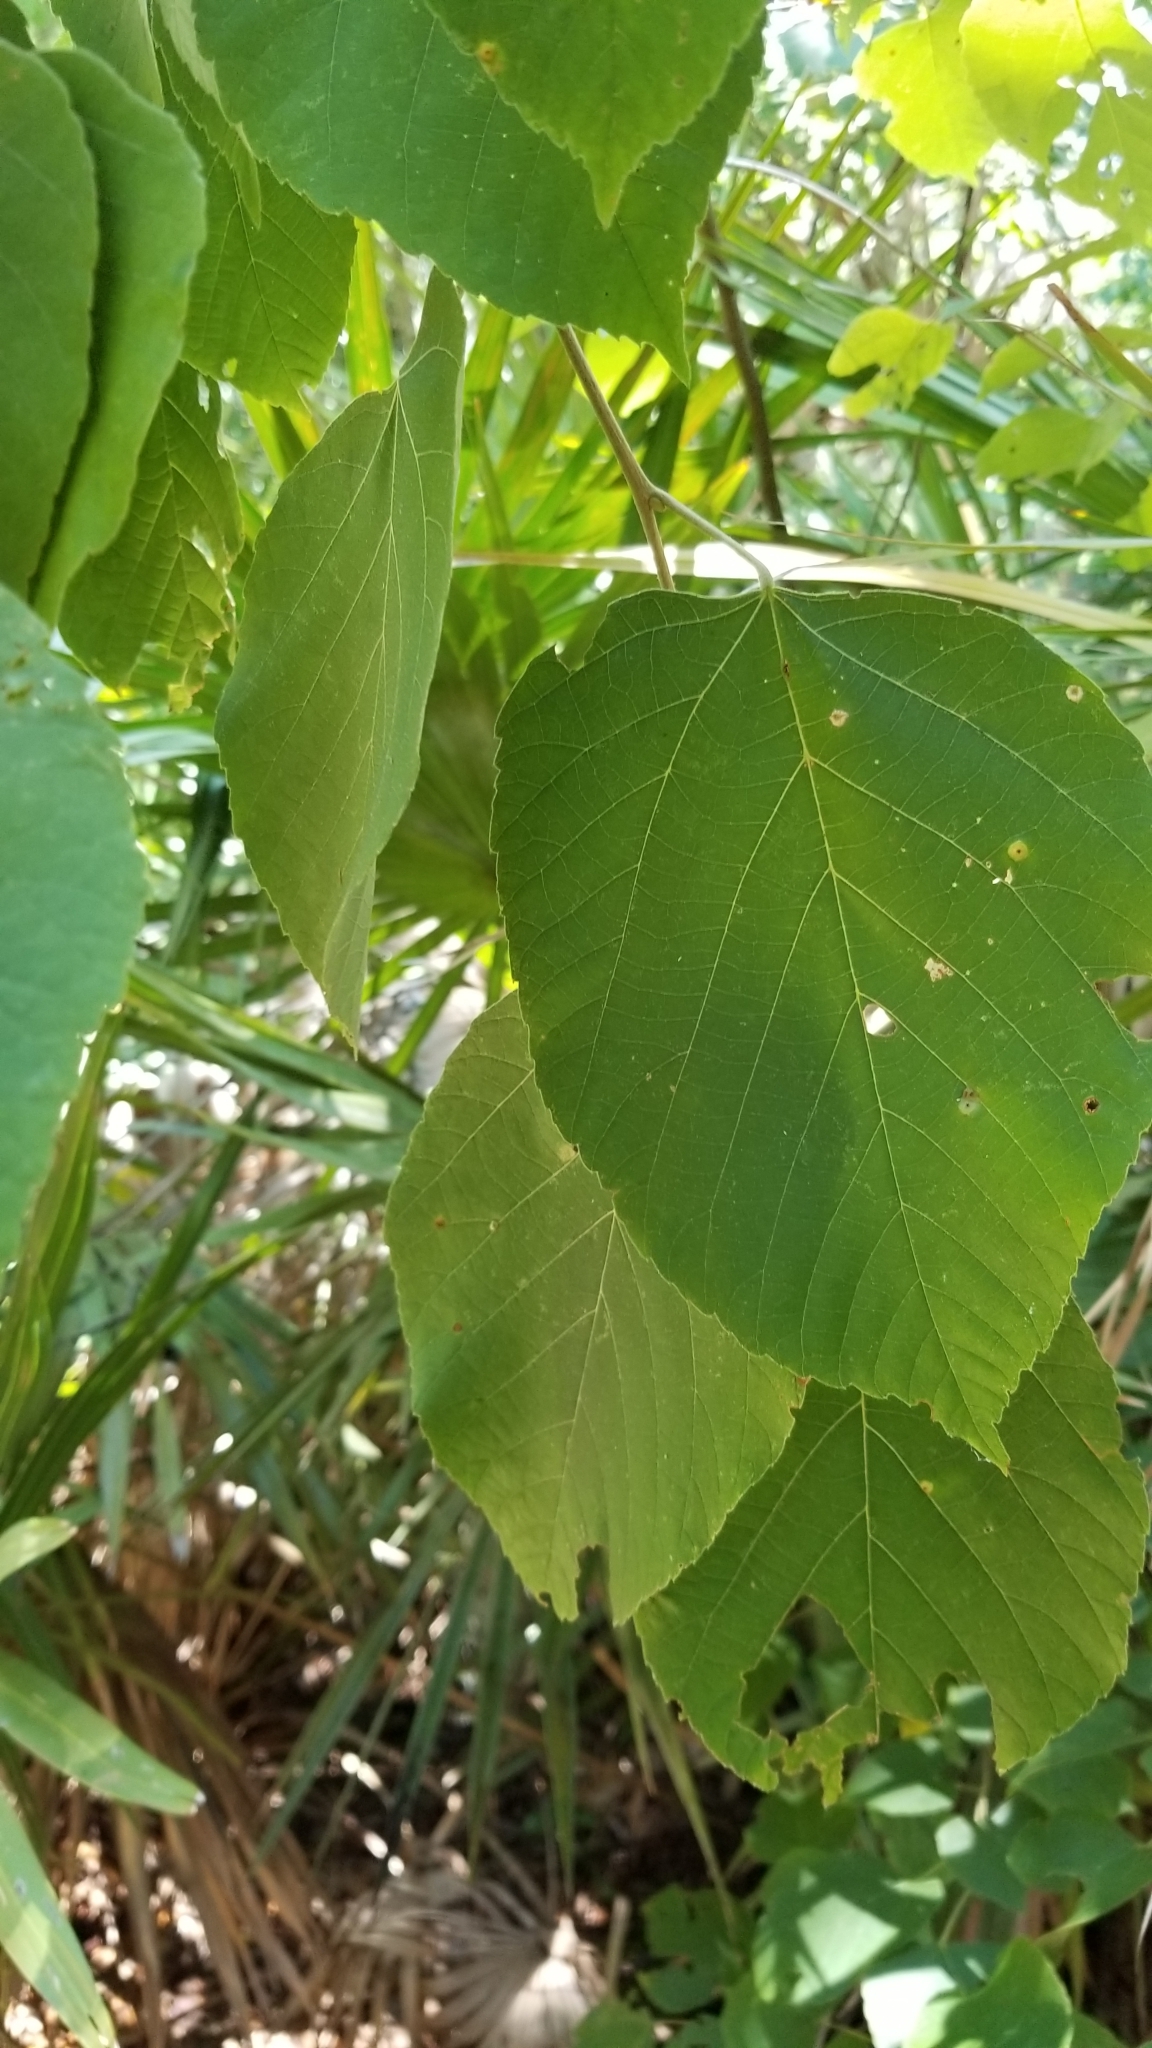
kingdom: Plantae
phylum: Tracheophyta
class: Magnoliopsida
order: Malvales
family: Malvaceae
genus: Tilia
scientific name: Tilia americana
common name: Basswood
